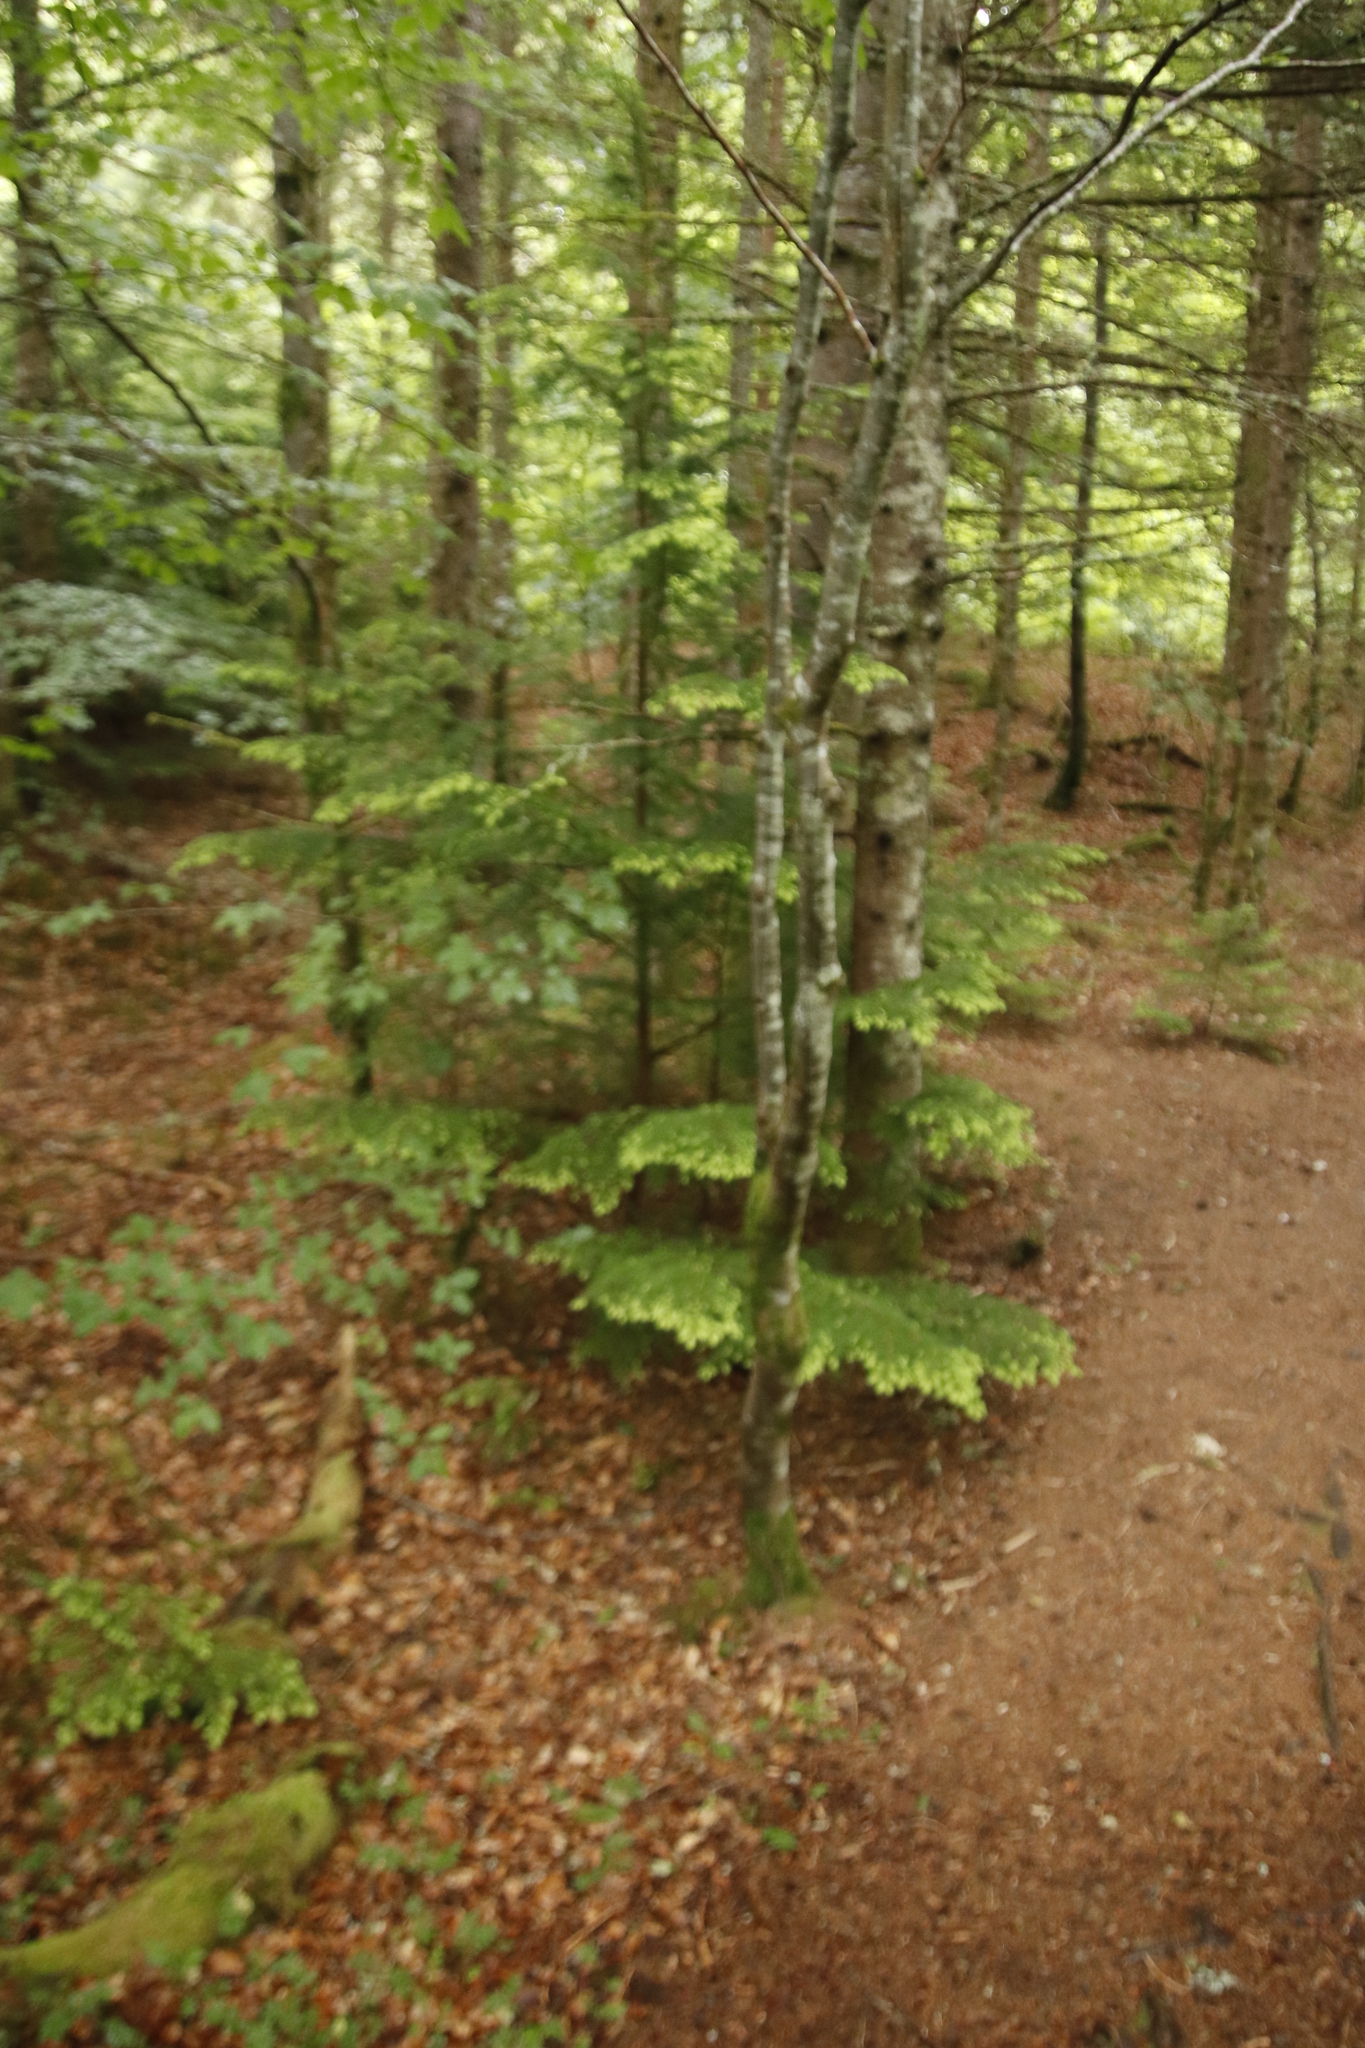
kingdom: Plantae
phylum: Tracheophyta
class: Magnoliopsida
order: Fagales
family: Fagaceae
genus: Fagus
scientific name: Fagus sylvatica
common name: Beech
